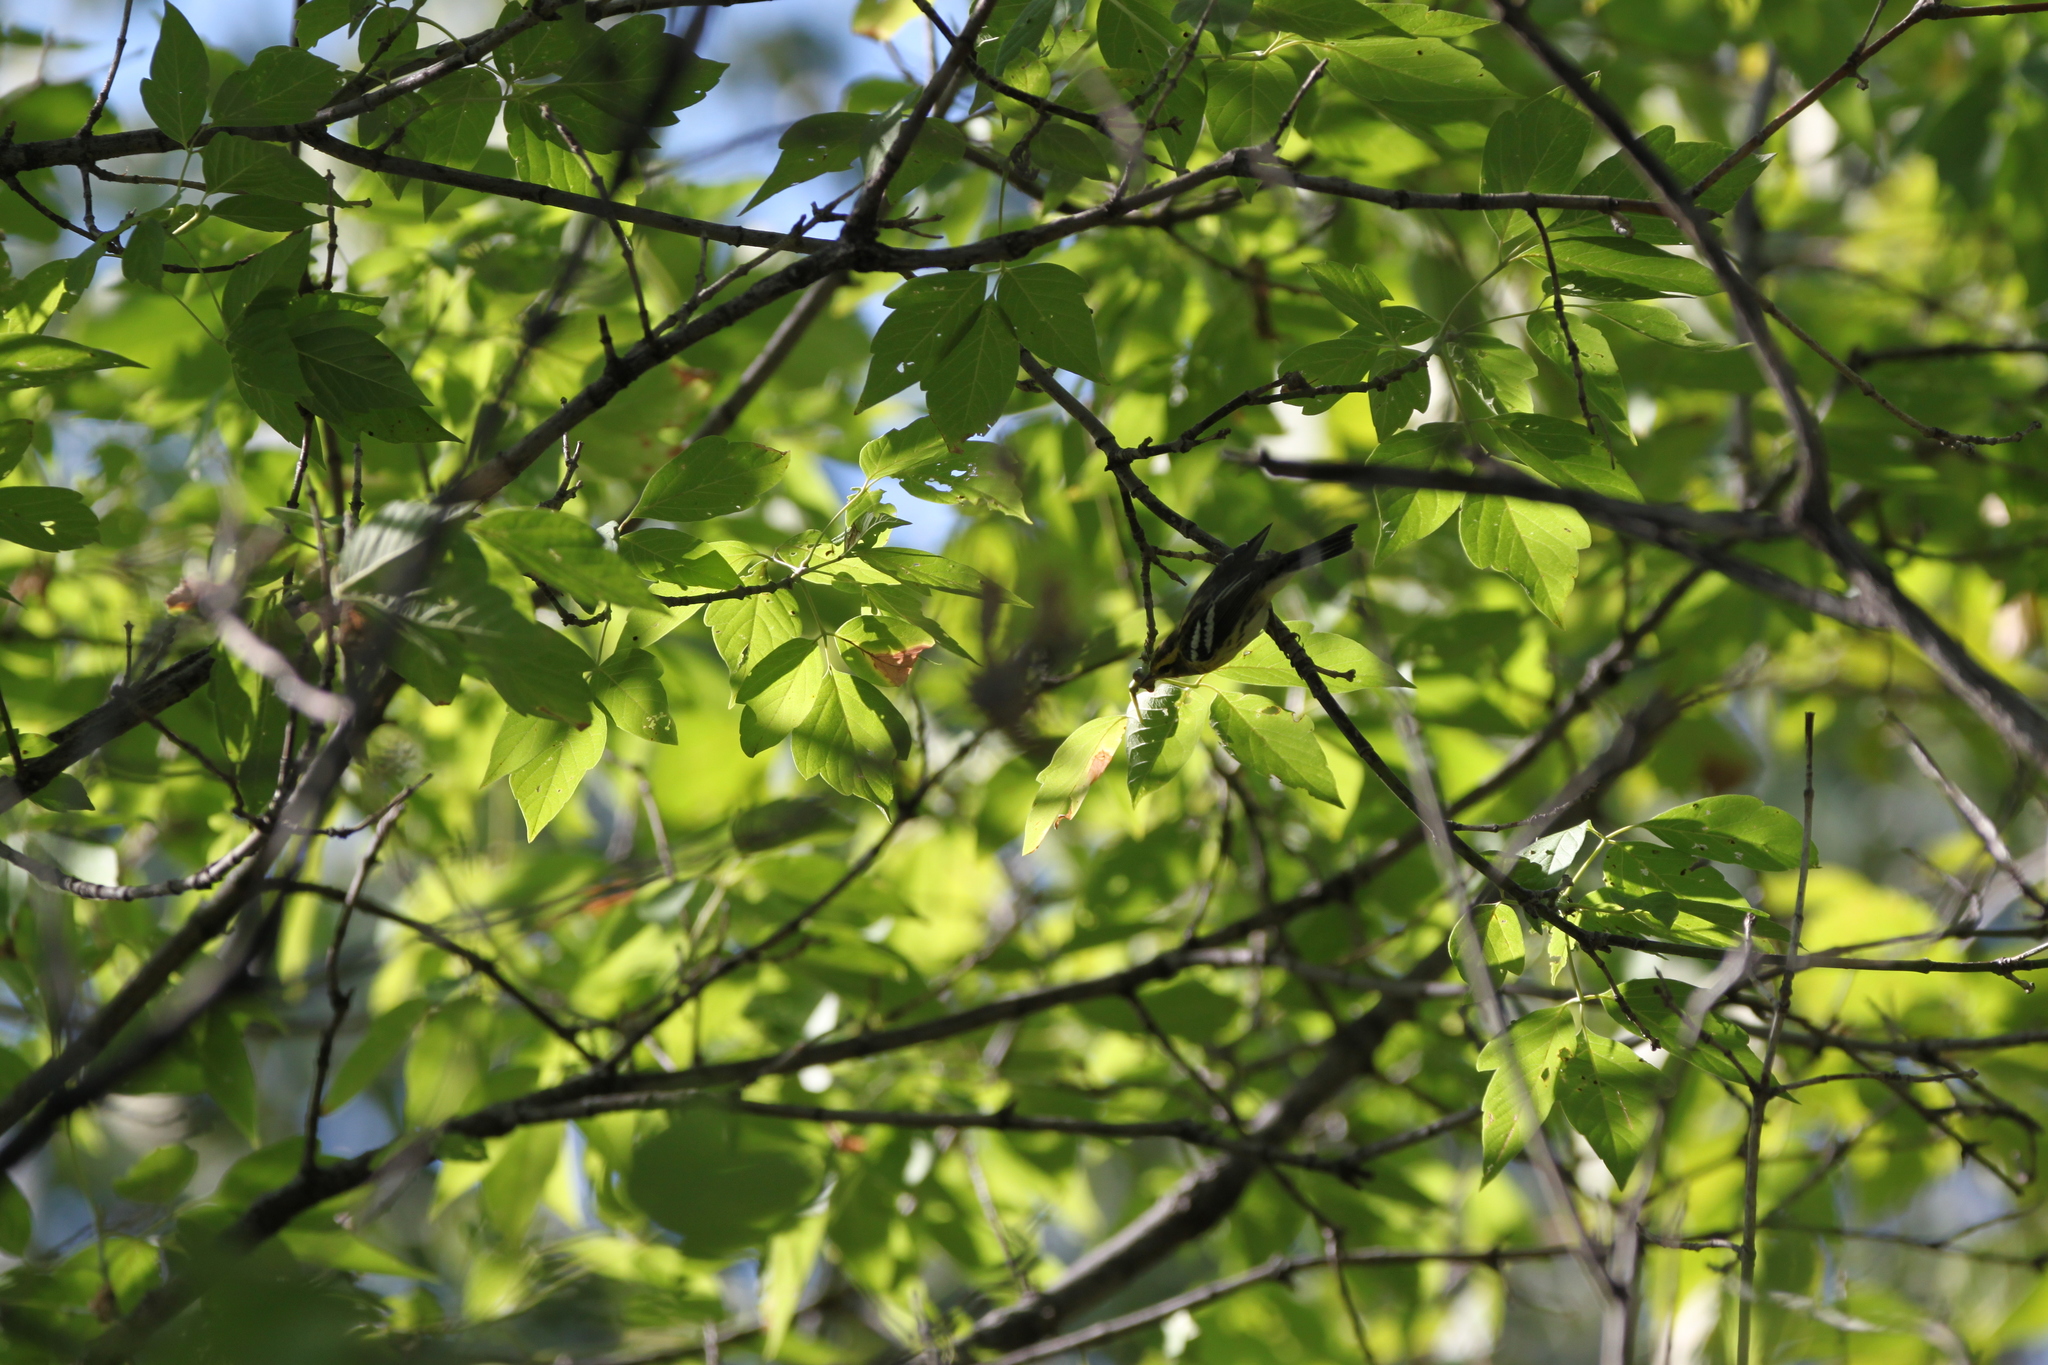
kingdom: Animalia
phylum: Chordata
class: Aves
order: Passeriformes
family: Parulidae
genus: Setophaga
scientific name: Setophaga fusca
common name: Blackburnian warbler
